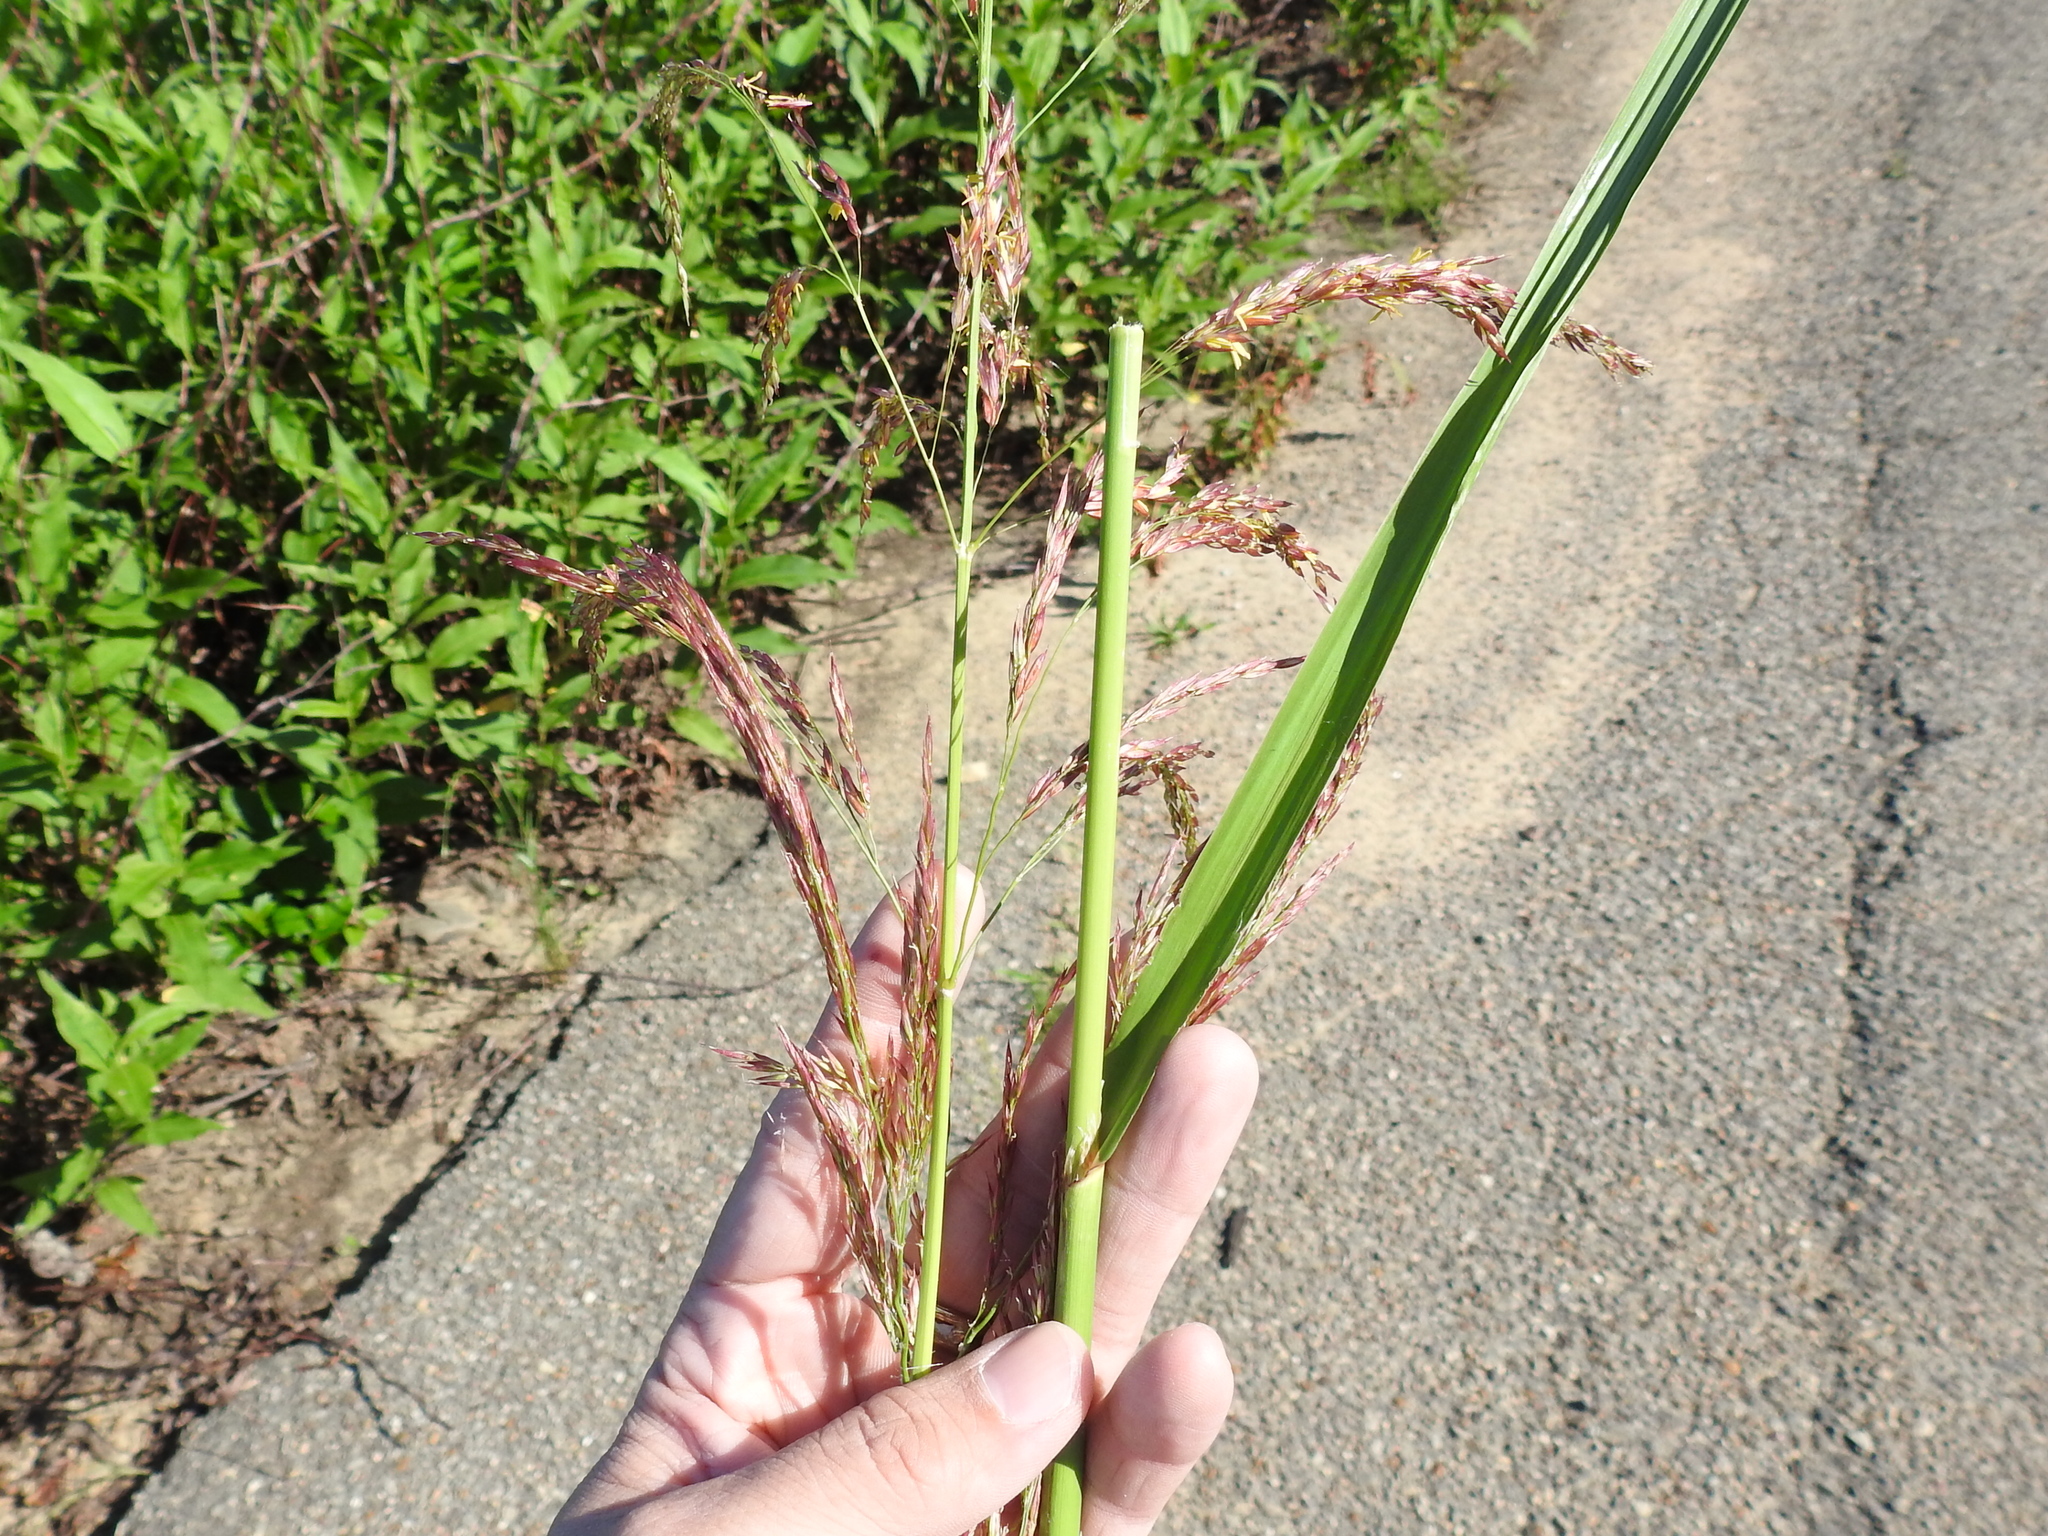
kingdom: Plantae
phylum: Tracheophyta
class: Liliopsida
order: Poales
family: Poaceae
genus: Zizaniopsis
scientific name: Zizaniopsis miliacea
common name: Giant-cutgrass
